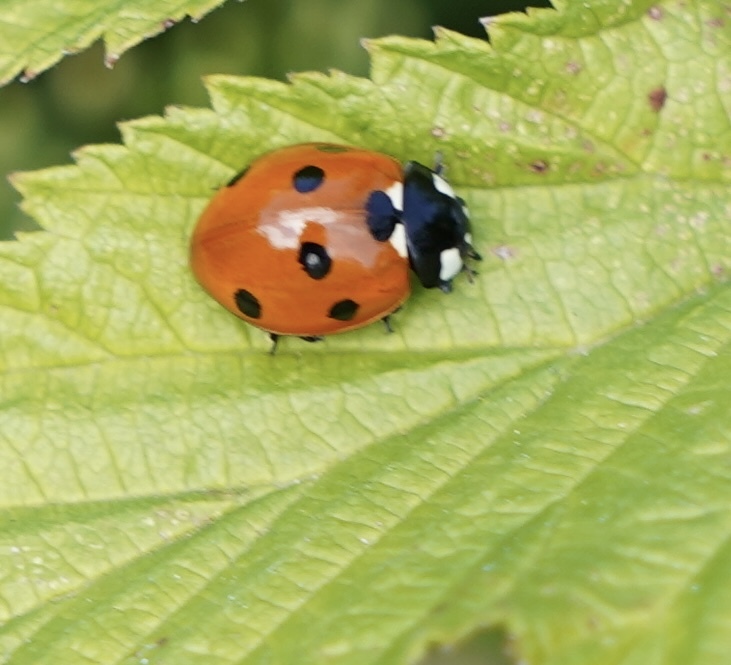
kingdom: Animalia
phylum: Arthropoda
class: Insecta
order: Coleoptera
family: Coccinellidae
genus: Coccinella
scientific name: Coccinella septempunctata
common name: Sevenspotted lady beetle
